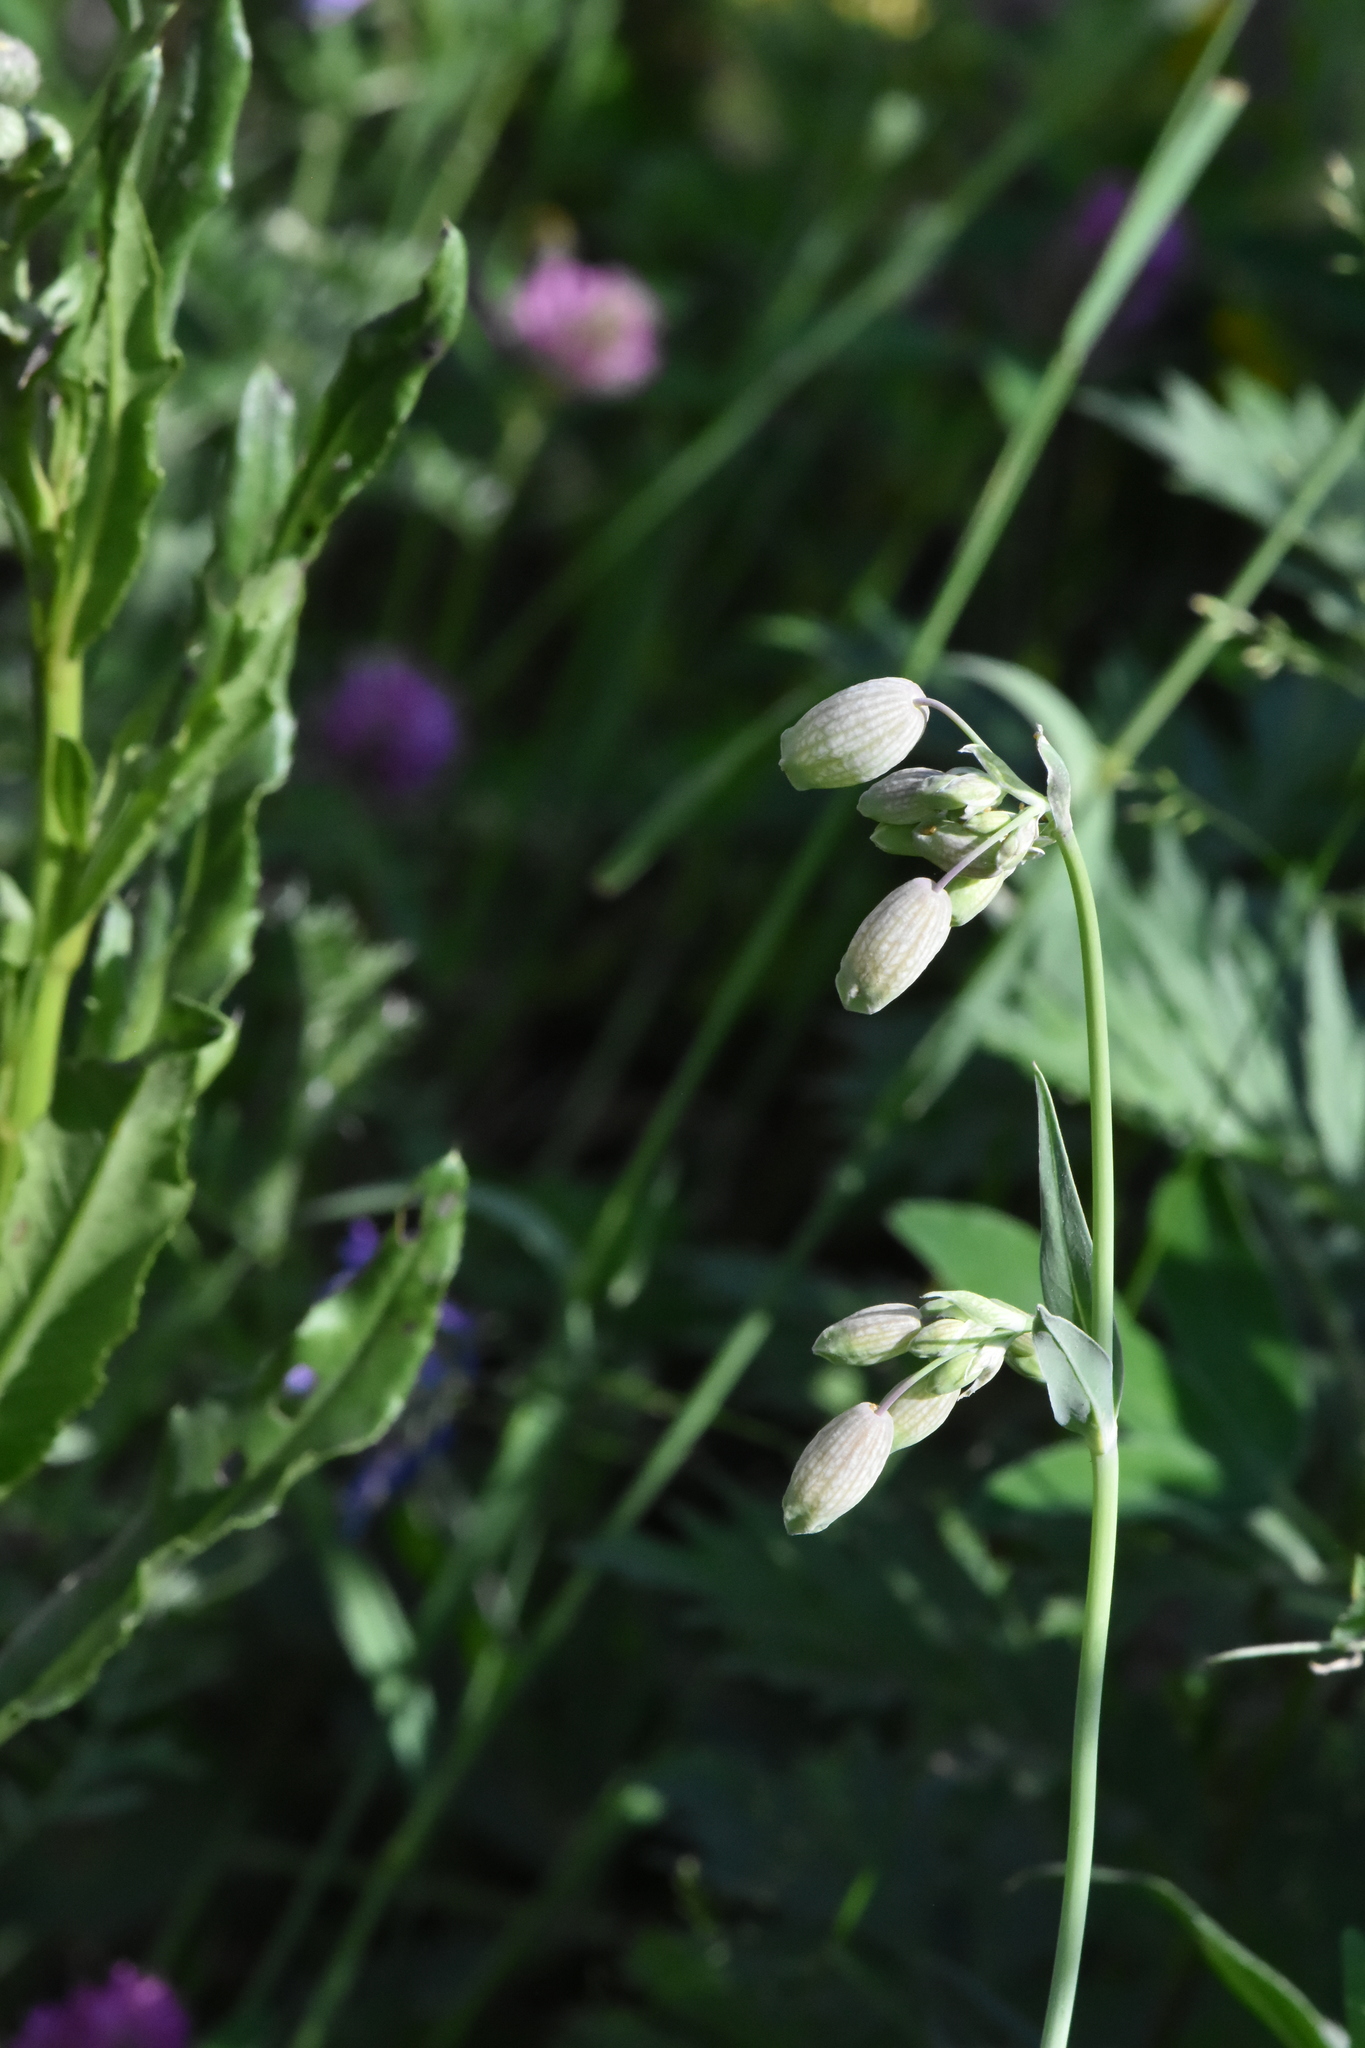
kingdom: Plantae
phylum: Tracheophyta
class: Magnoliopsida
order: Caryophyllales
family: Caryophyllaceae
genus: Silene
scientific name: Silene vulgaris
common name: Bladder campion
